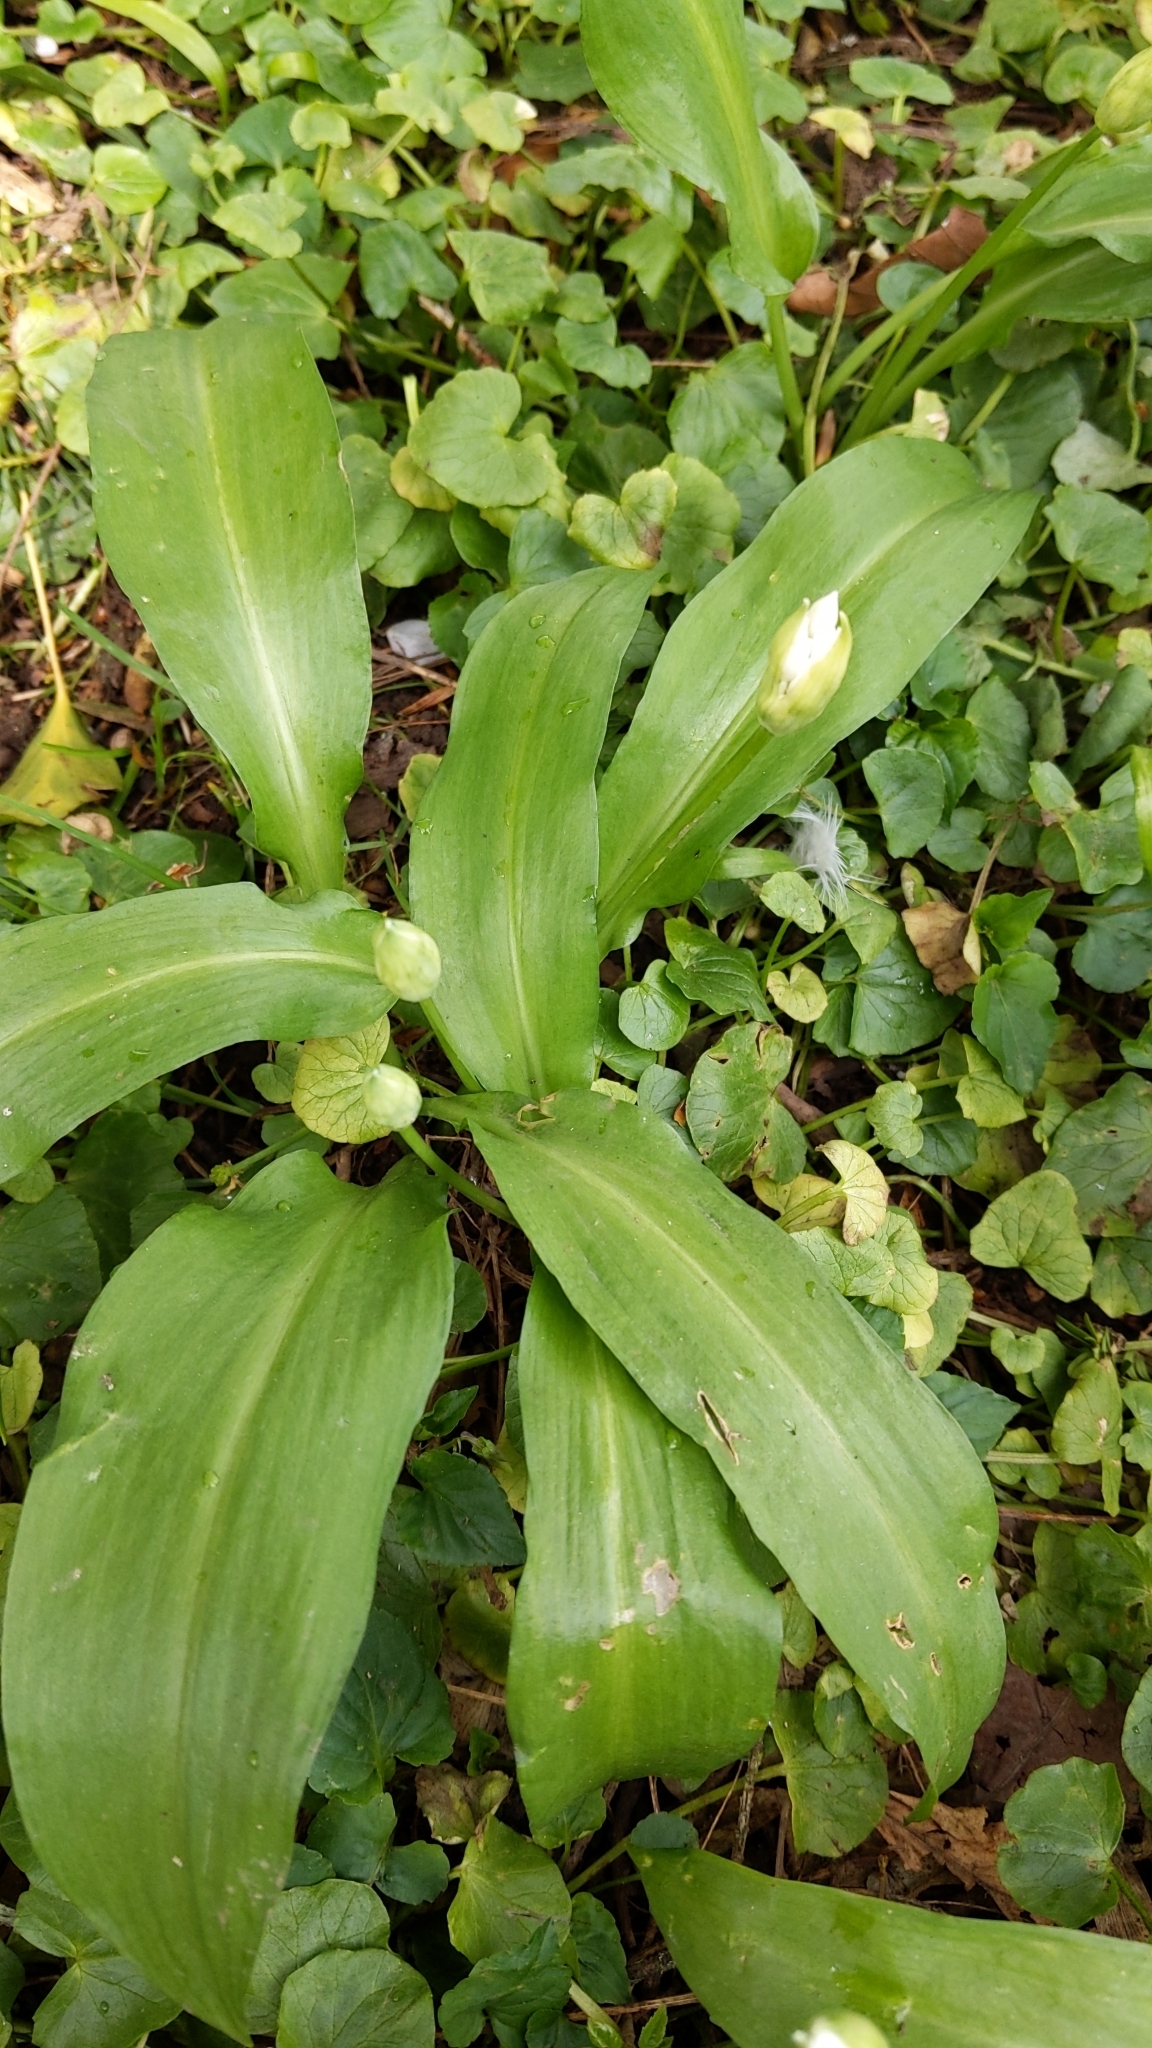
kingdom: Plantae
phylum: Tracheophyta
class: Liliopsida
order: Asparagales
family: Amaryllidaceae
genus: Allium
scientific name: Allium ursinum
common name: Ramsons
